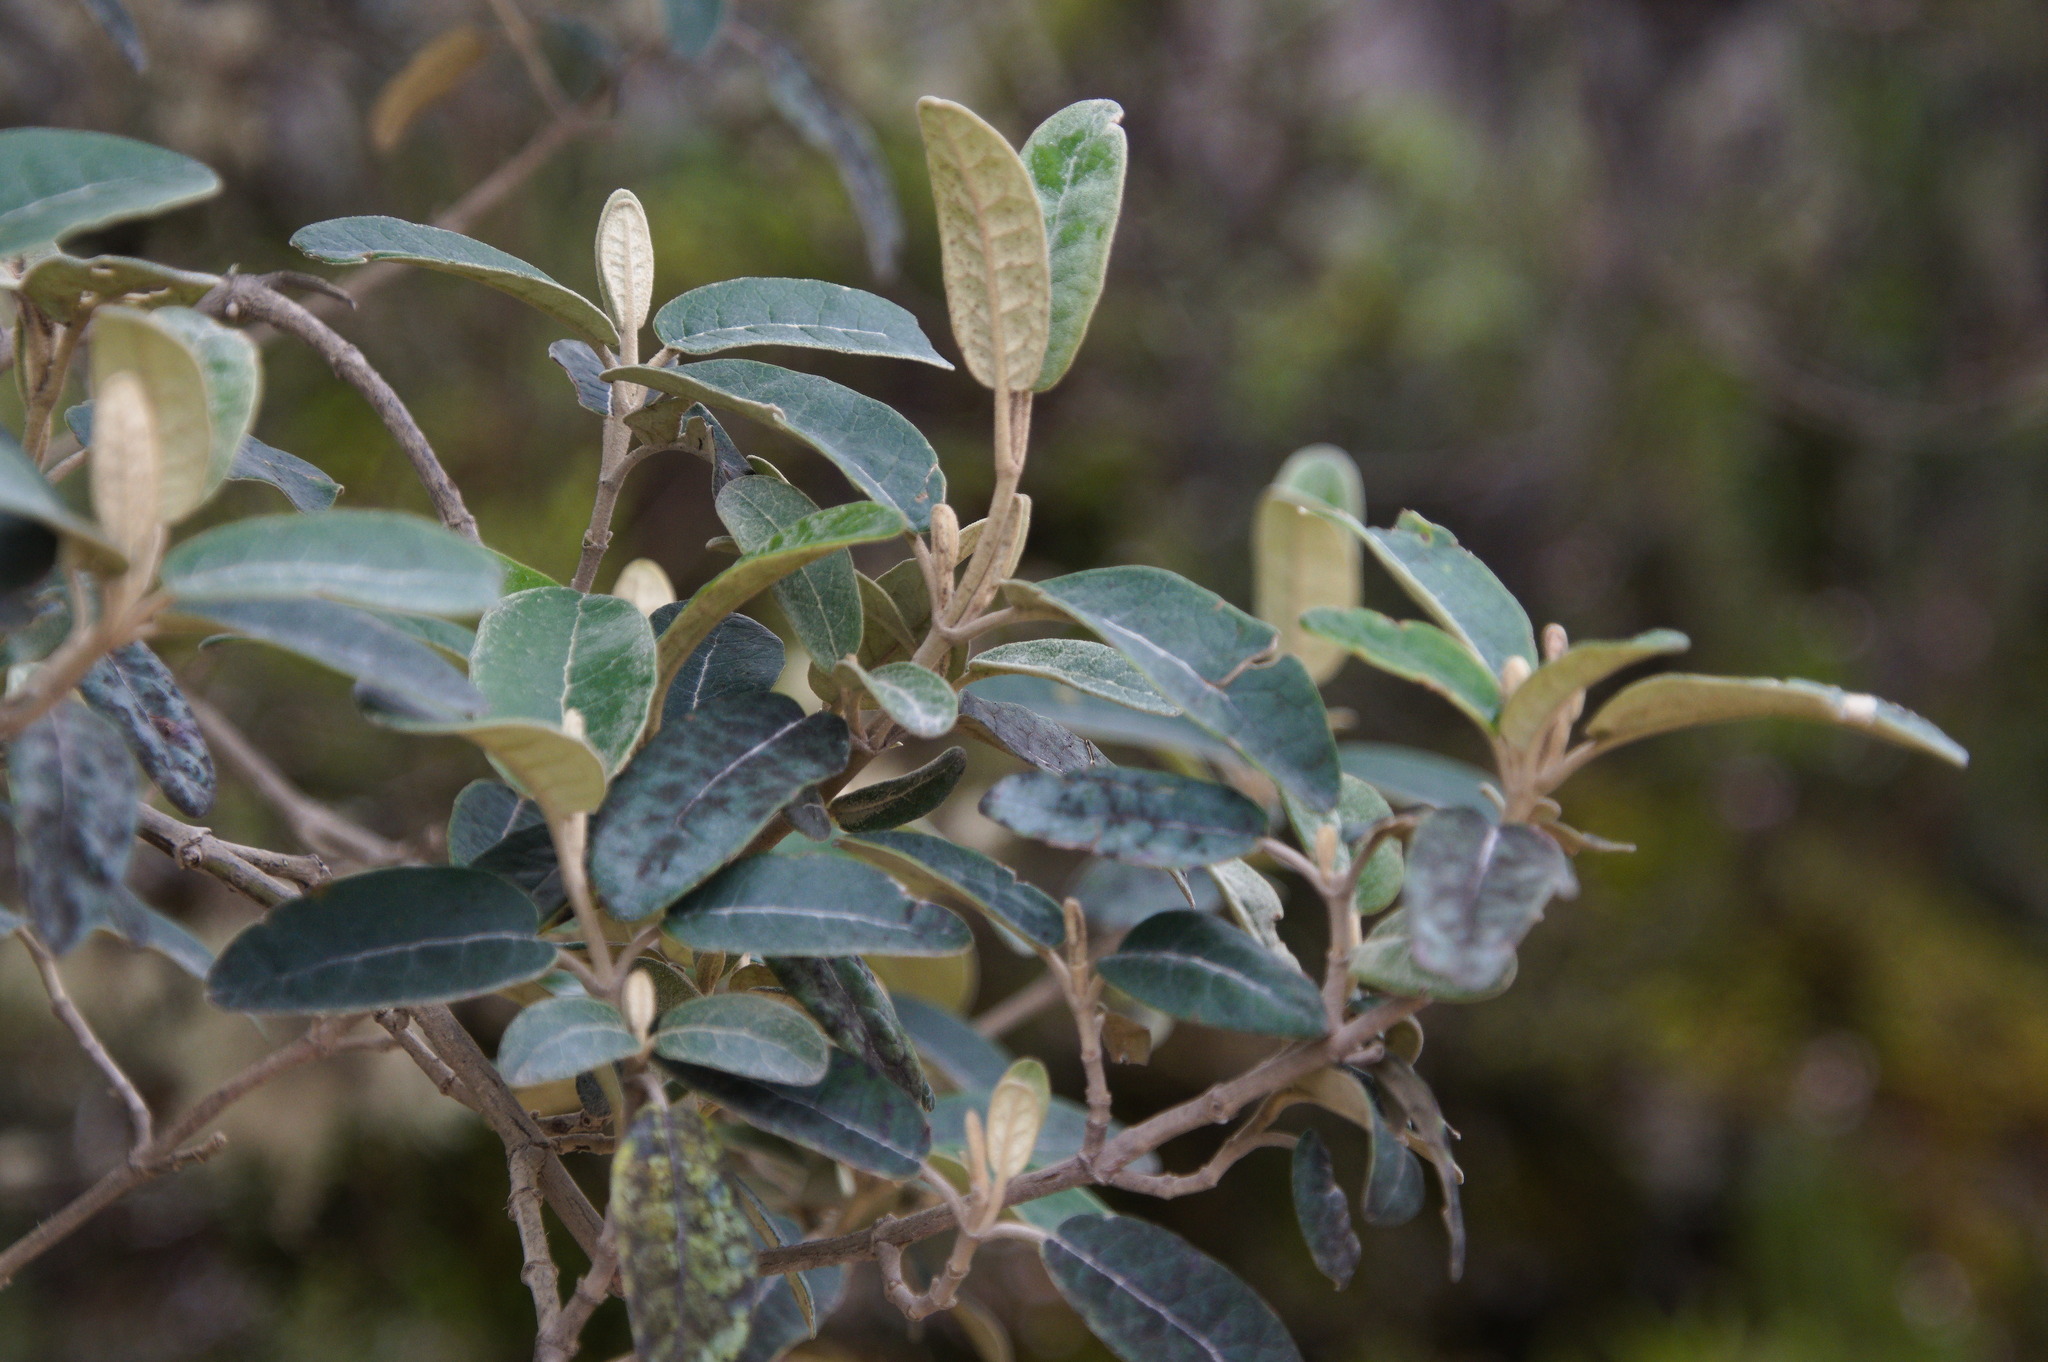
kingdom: Plantae
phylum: Tracheophyta
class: Magnoliopsida
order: Asterales
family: Asteraceae
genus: Gynoxys
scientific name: Gynoxys
